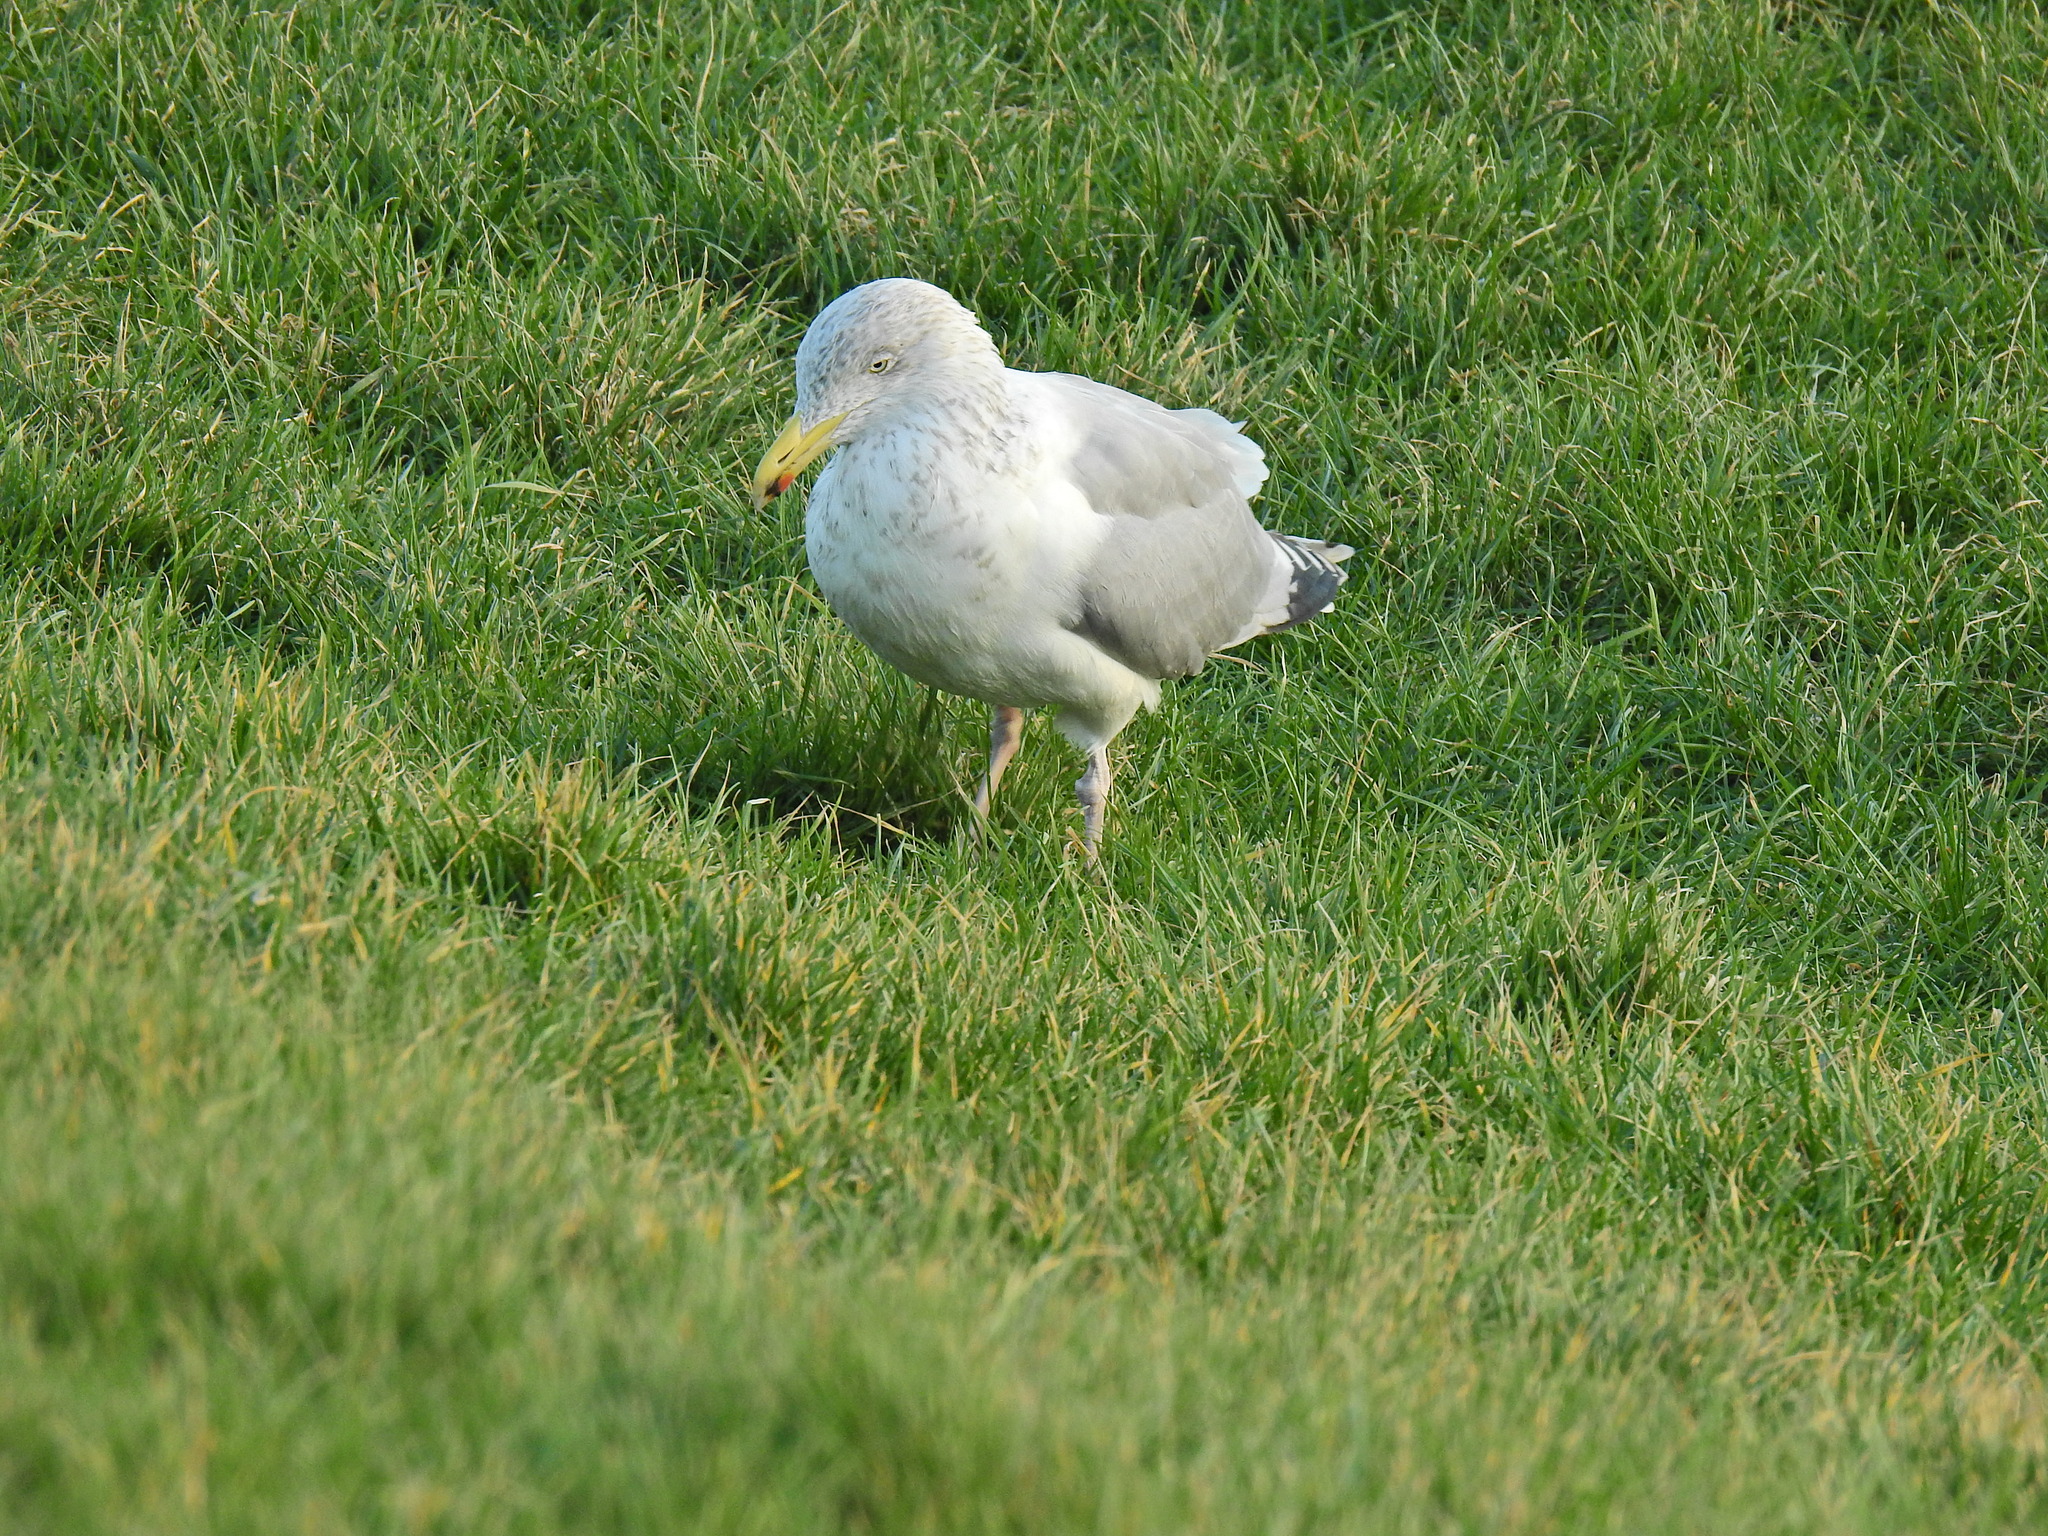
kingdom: Animalia
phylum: Chordata
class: Aves
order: Charadriiformes
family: Laridae
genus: Larus
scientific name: Larus argentatus
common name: Herring gull
